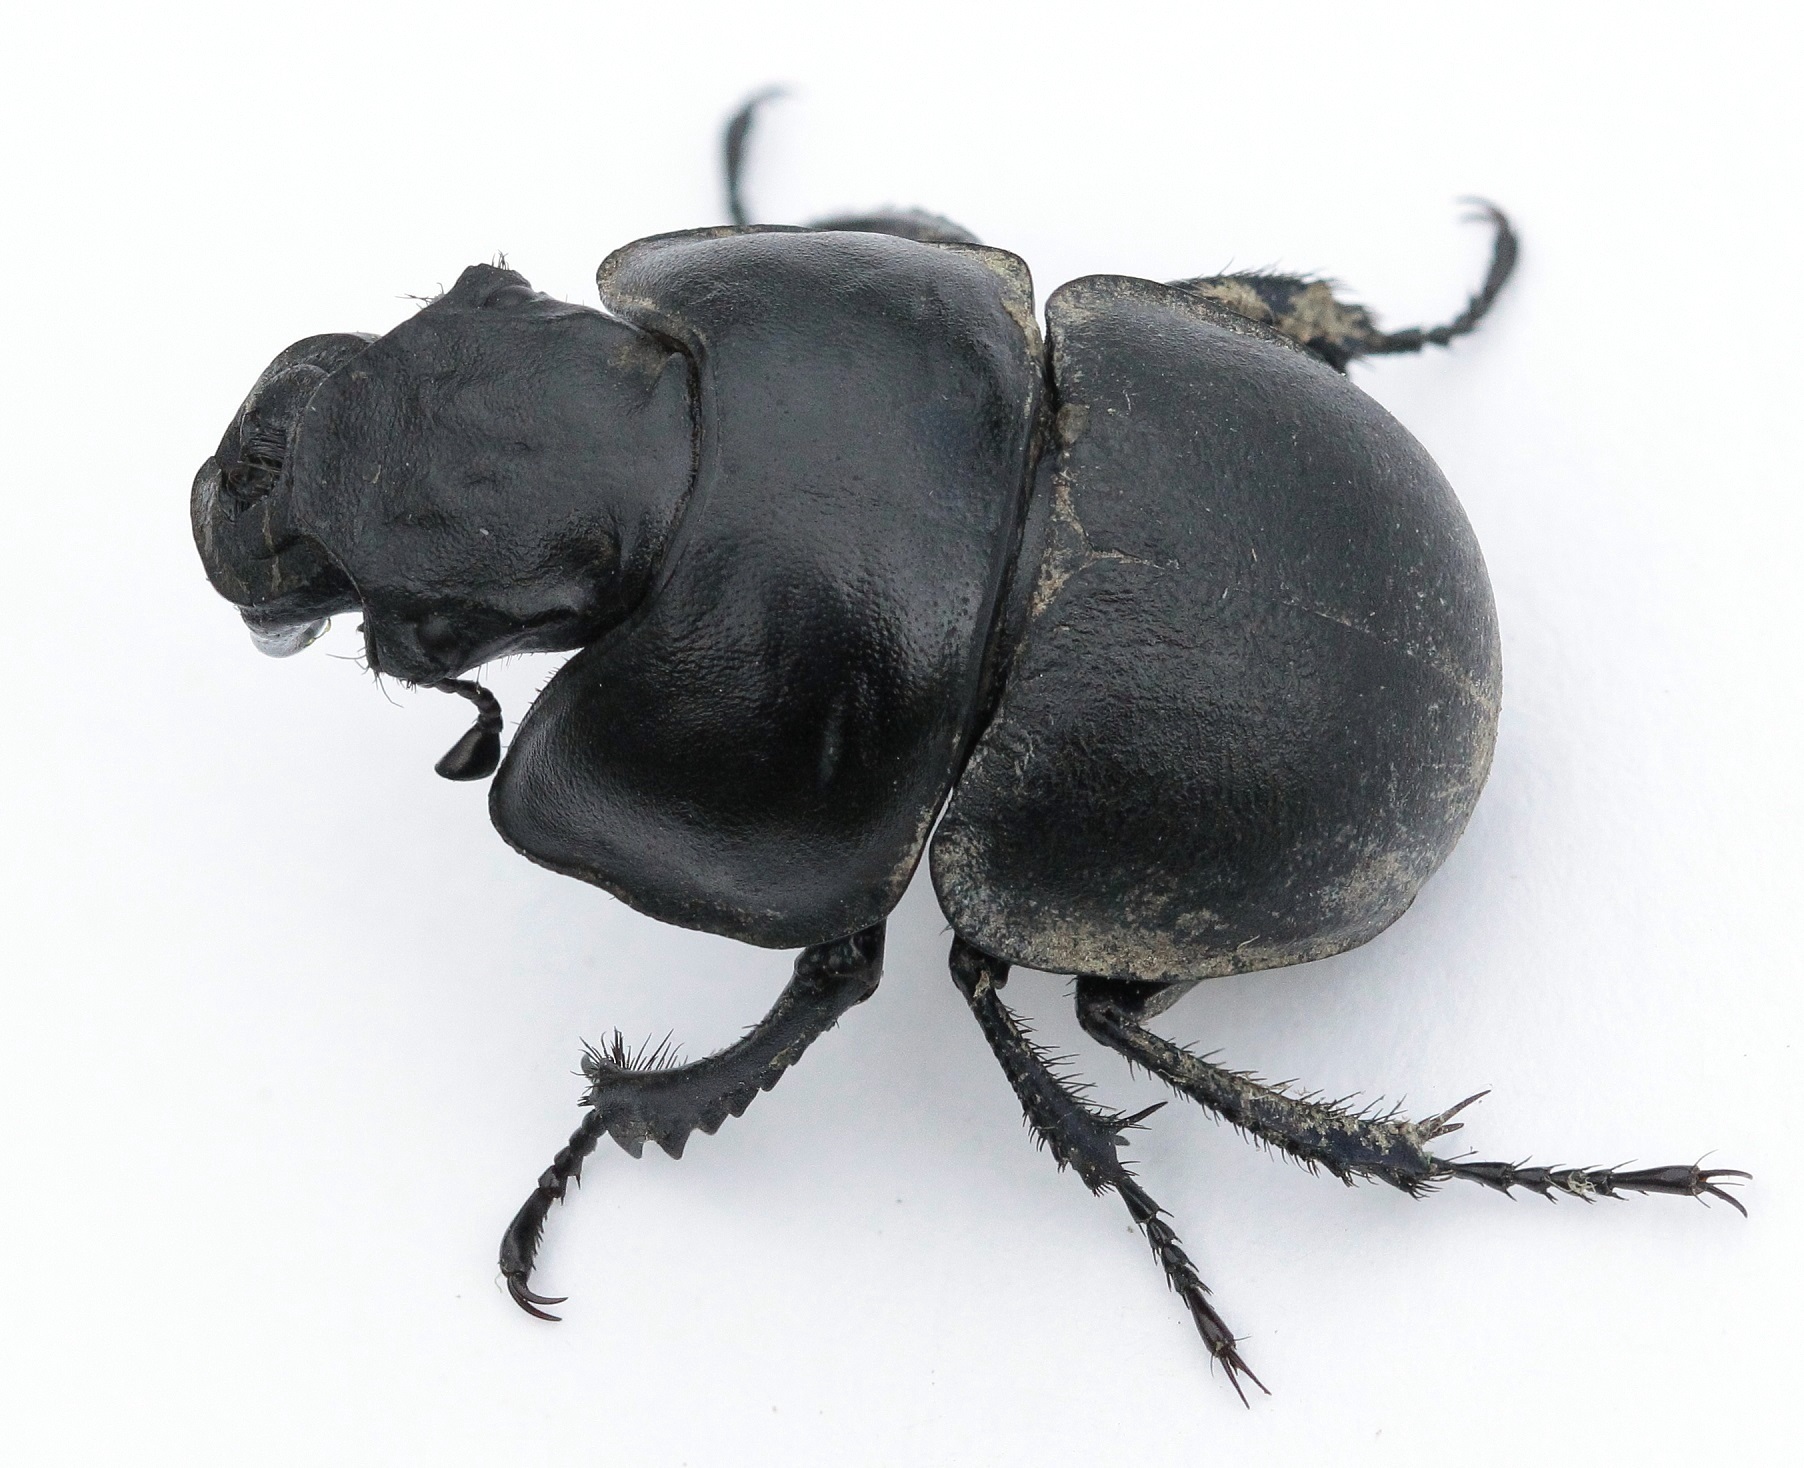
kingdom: Animalia
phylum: Arthropoda
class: Insecta
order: Coleoptera
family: Geotrupidae
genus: Lethrus
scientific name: Lethrus apterus
